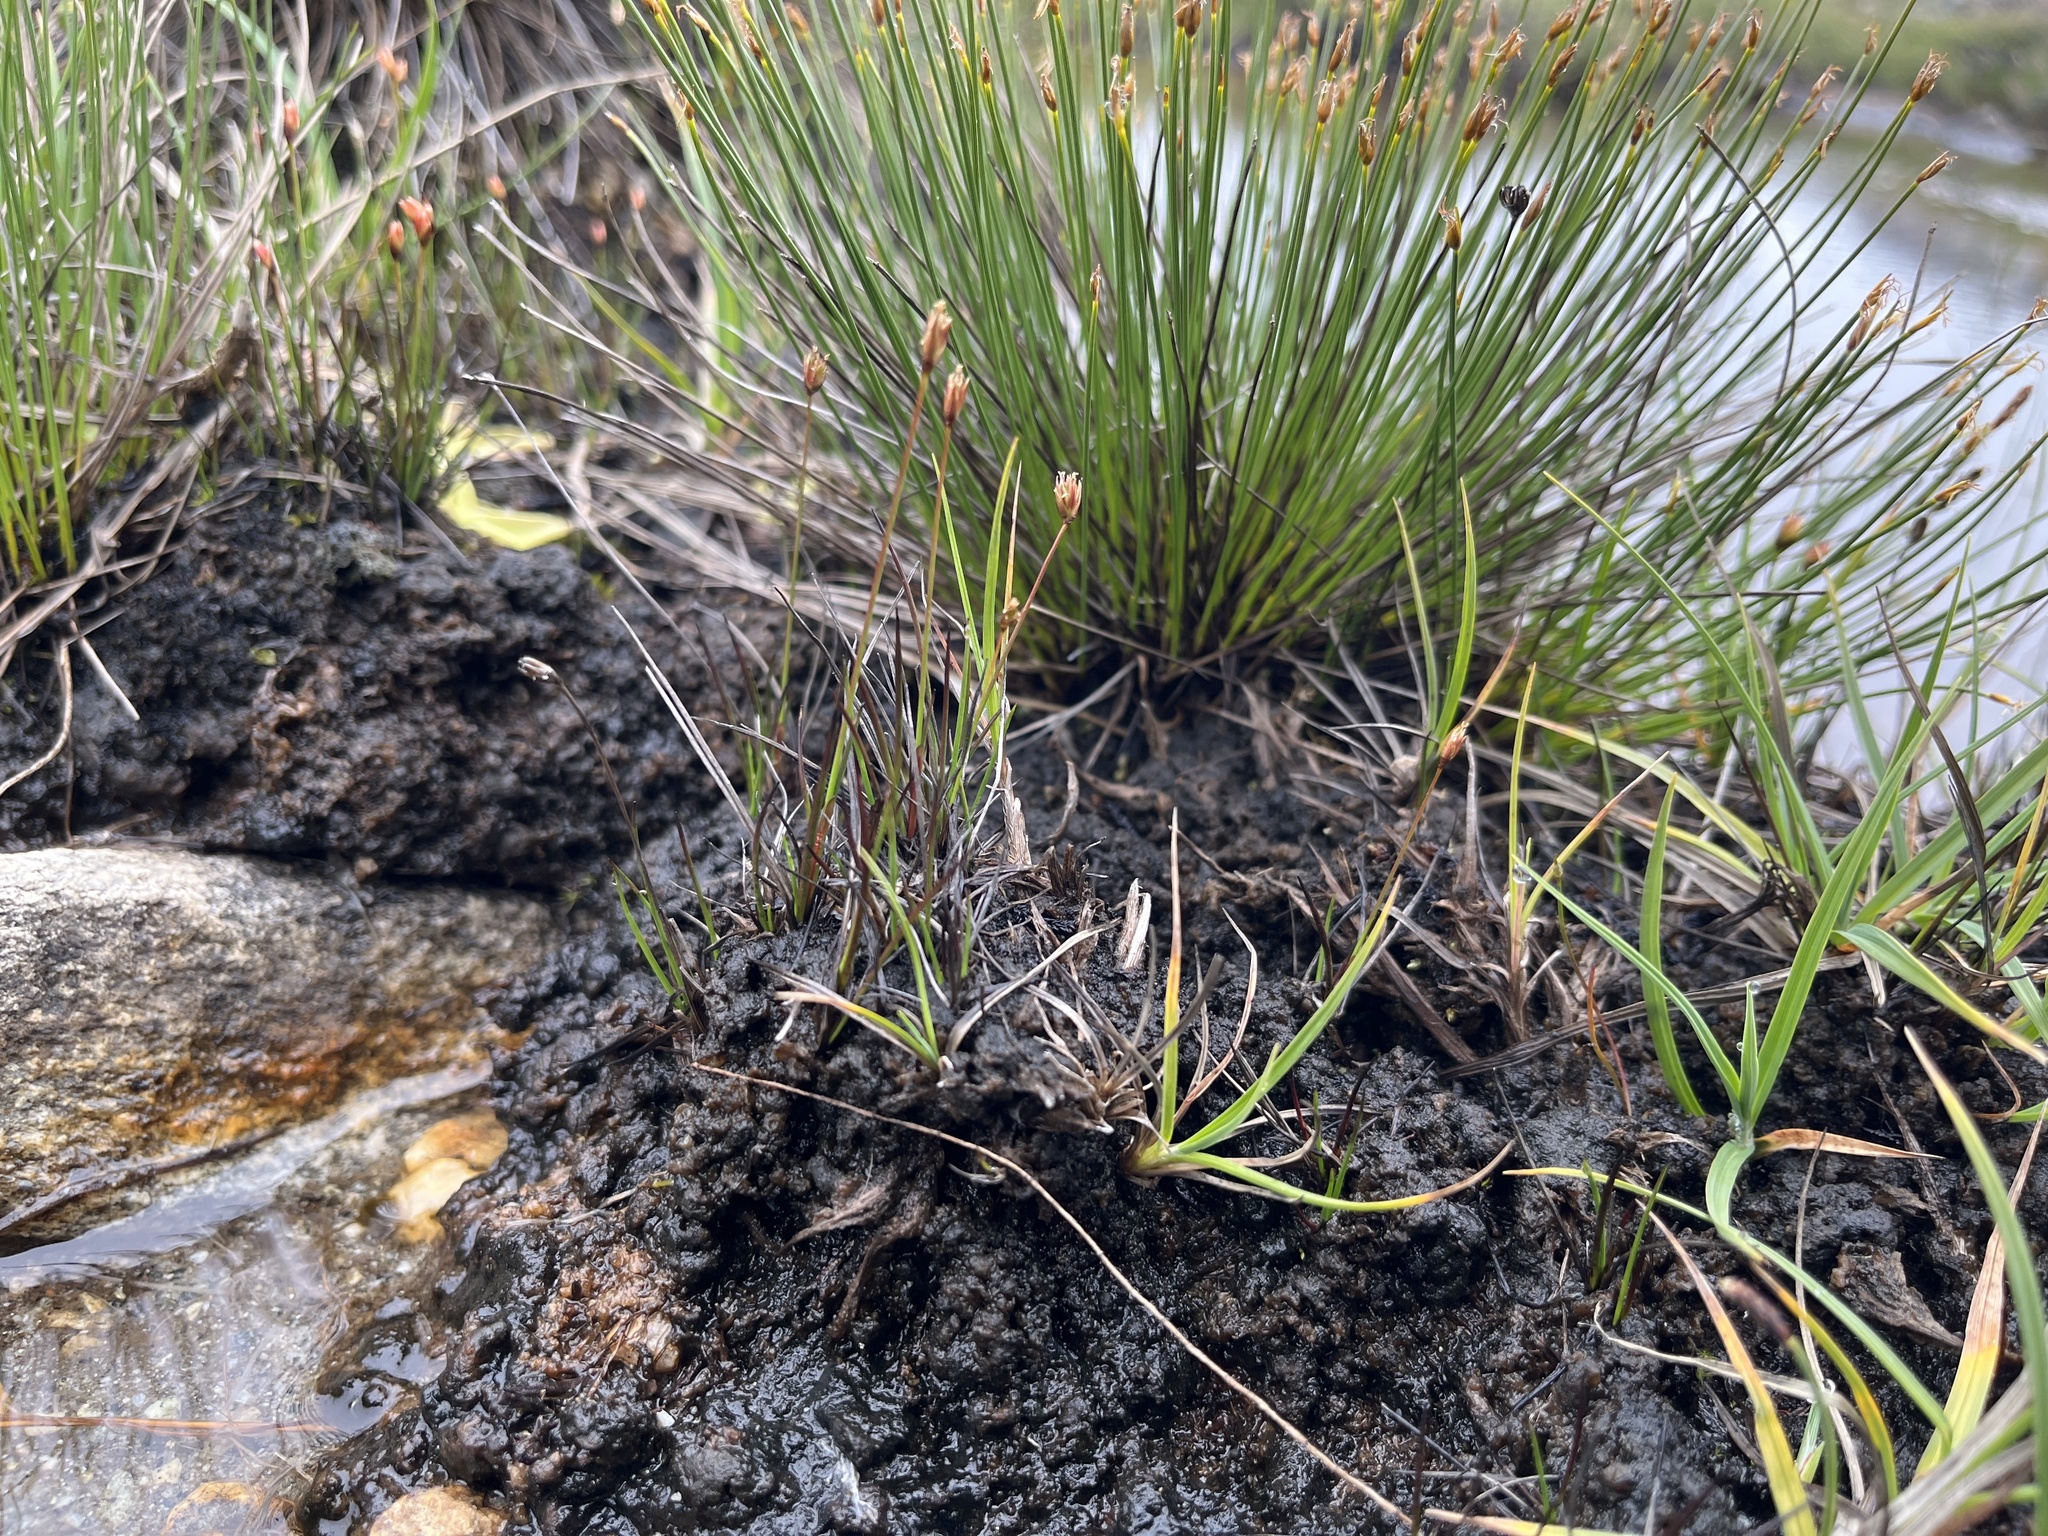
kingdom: Plantae
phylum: Tracheophyta
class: Liliopsida
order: Poales
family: Juncaceae
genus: Juncus
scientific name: Juncus biglumis
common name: Two-flowered rush
